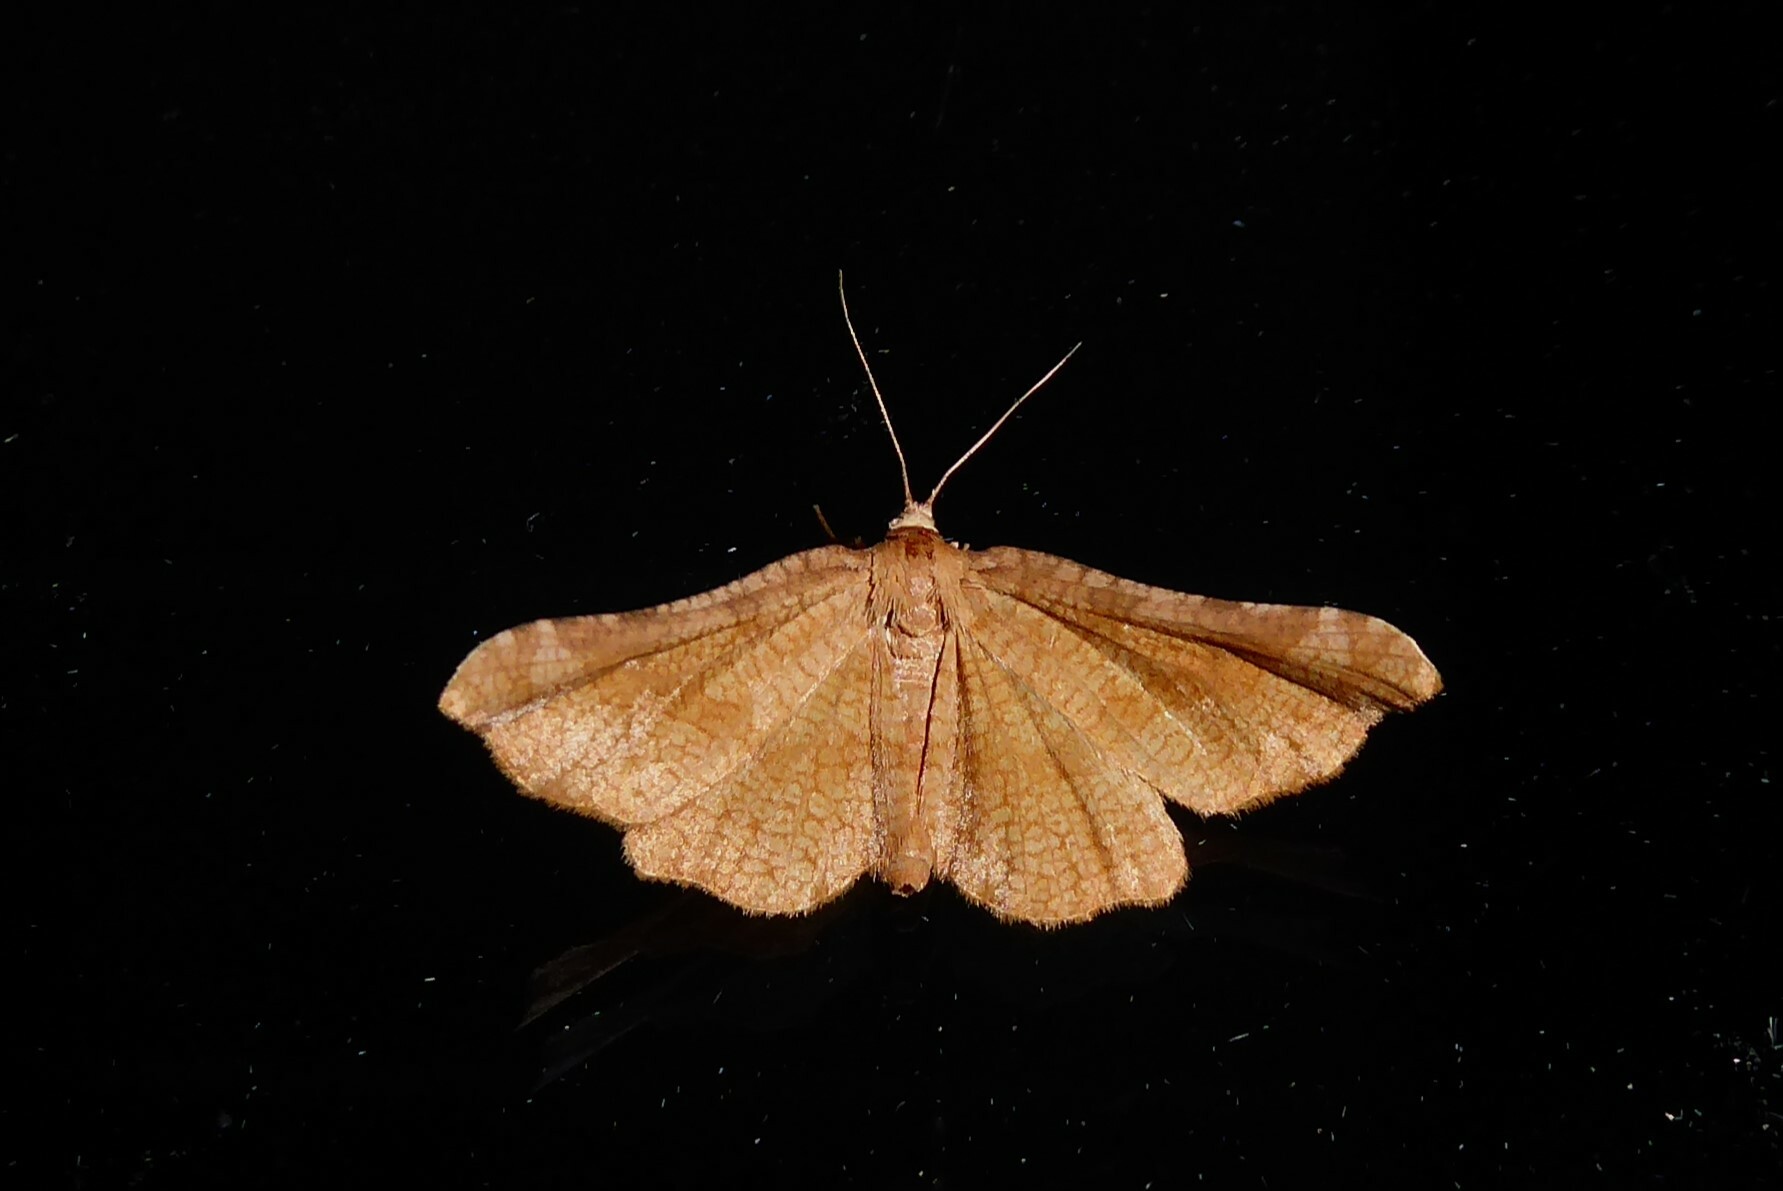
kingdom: Animalia
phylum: Arthropoda
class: Insecta
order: Lepidoptera
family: Thyrididae
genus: Morova
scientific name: Morova subfasciata
